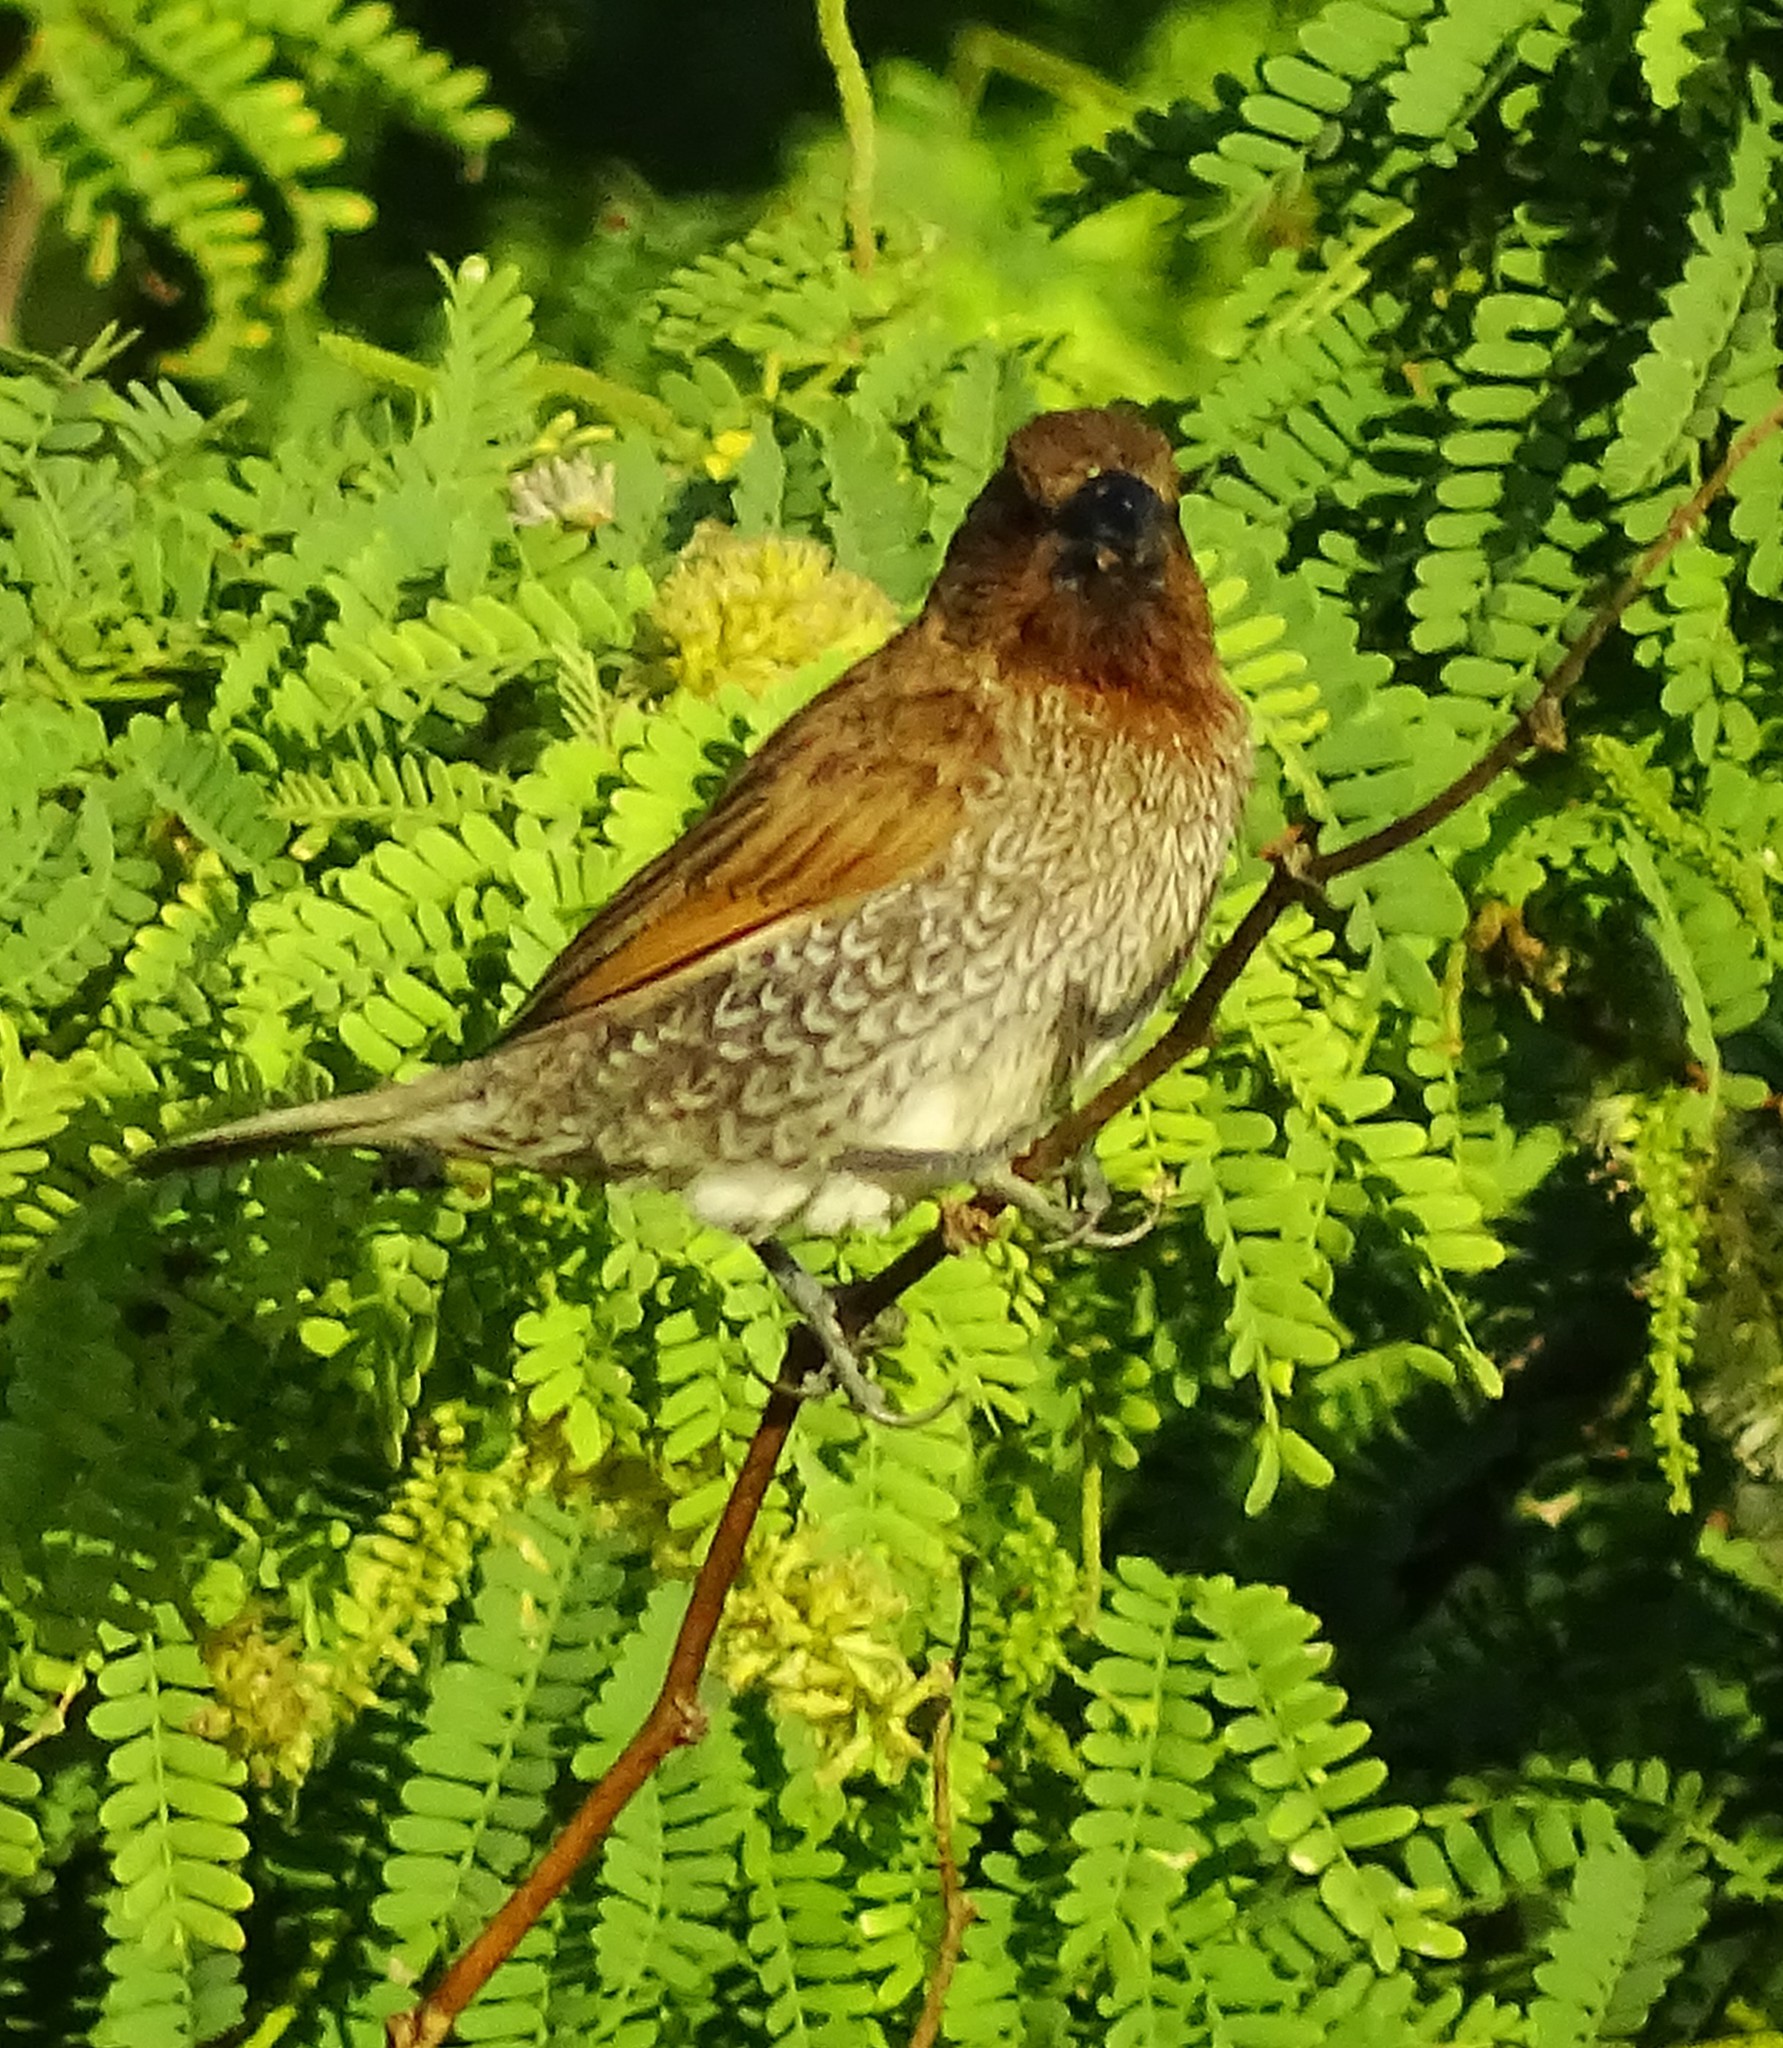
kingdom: Animalia
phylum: Chordata
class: Aves
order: Passeriformes
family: Estrildidae
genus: Lonchura
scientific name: Lonchura punctulata
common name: Scaly-breasted munia
